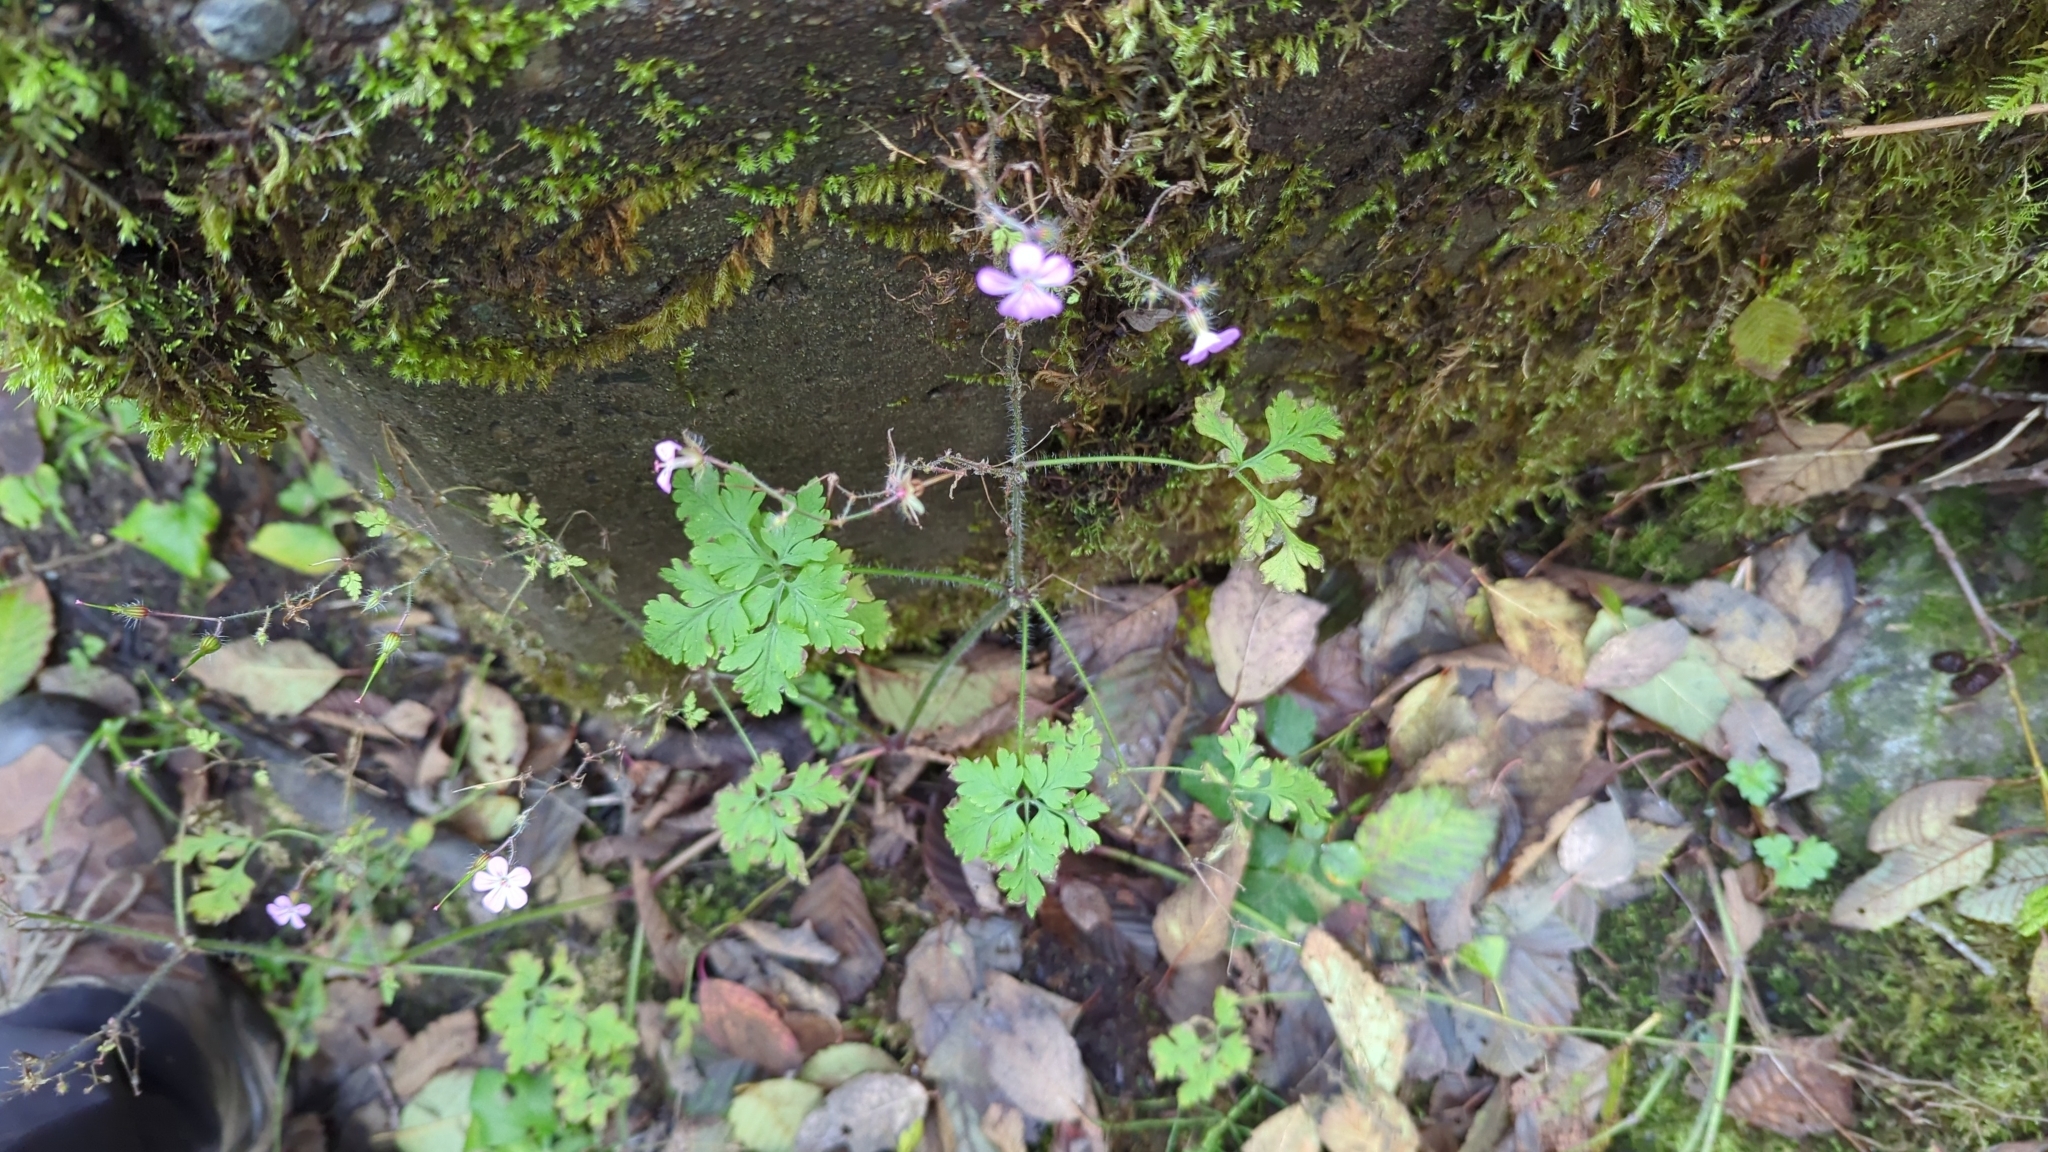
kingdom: Plantae
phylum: Tracheophyta
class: Magnoliopsida
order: Geraniales
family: Geraniaceae
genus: Geranium
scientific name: Geranium robertianum
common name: Herb-robert
